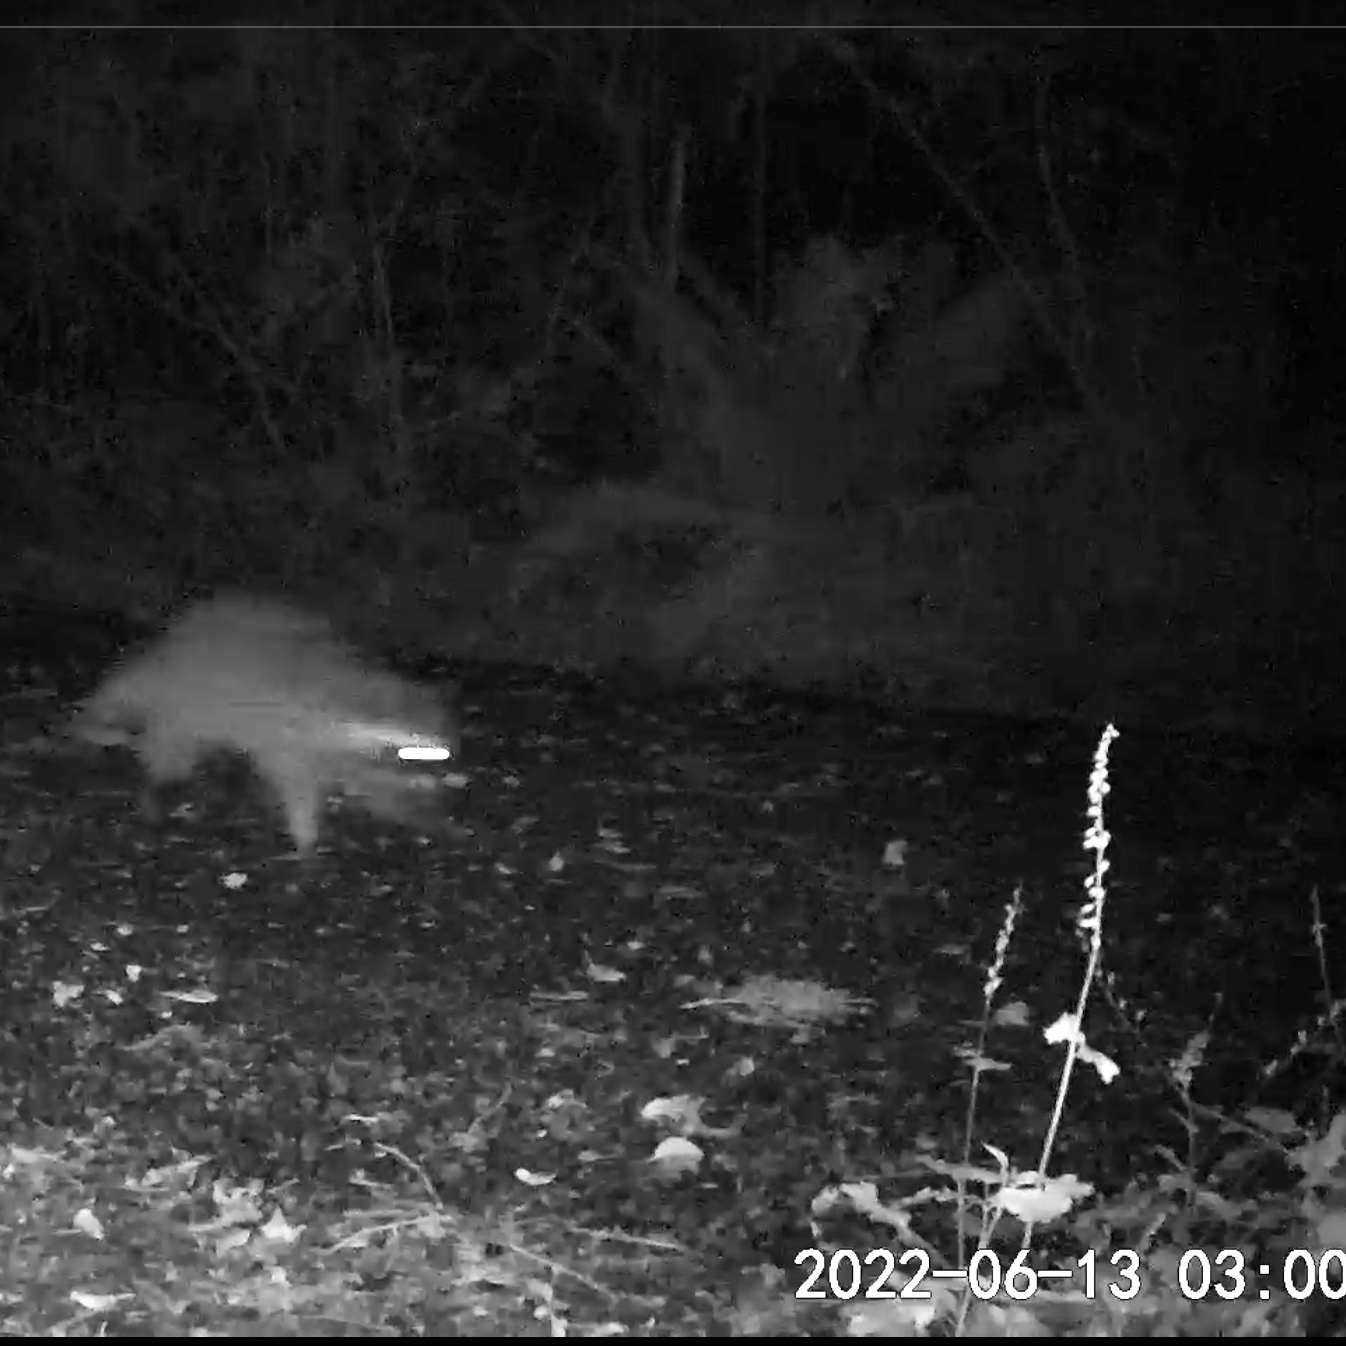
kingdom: Animalia
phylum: Chordata
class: Mammalia
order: Carnivora
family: Procyonidae
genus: Procyon
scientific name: Procyon lotor
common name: Raccoon
